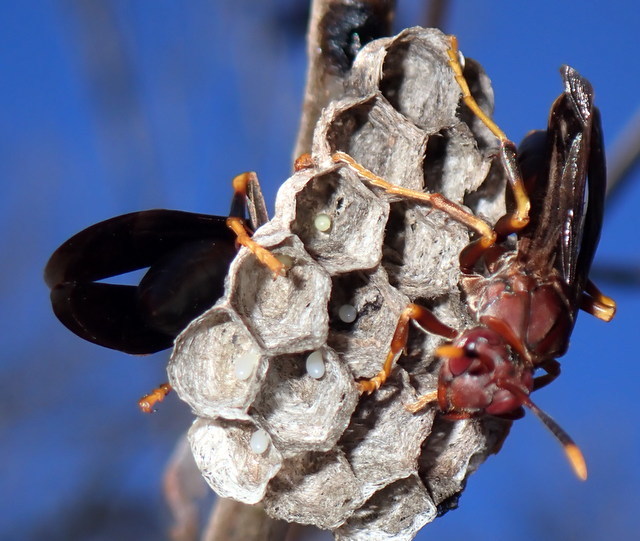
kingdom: Animalia
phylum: Arthropoda
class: Insecta
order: Hymenoptera
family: Eumenidae
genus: Polistes
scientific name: Polistes annularis
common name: Ringed paper wasp
